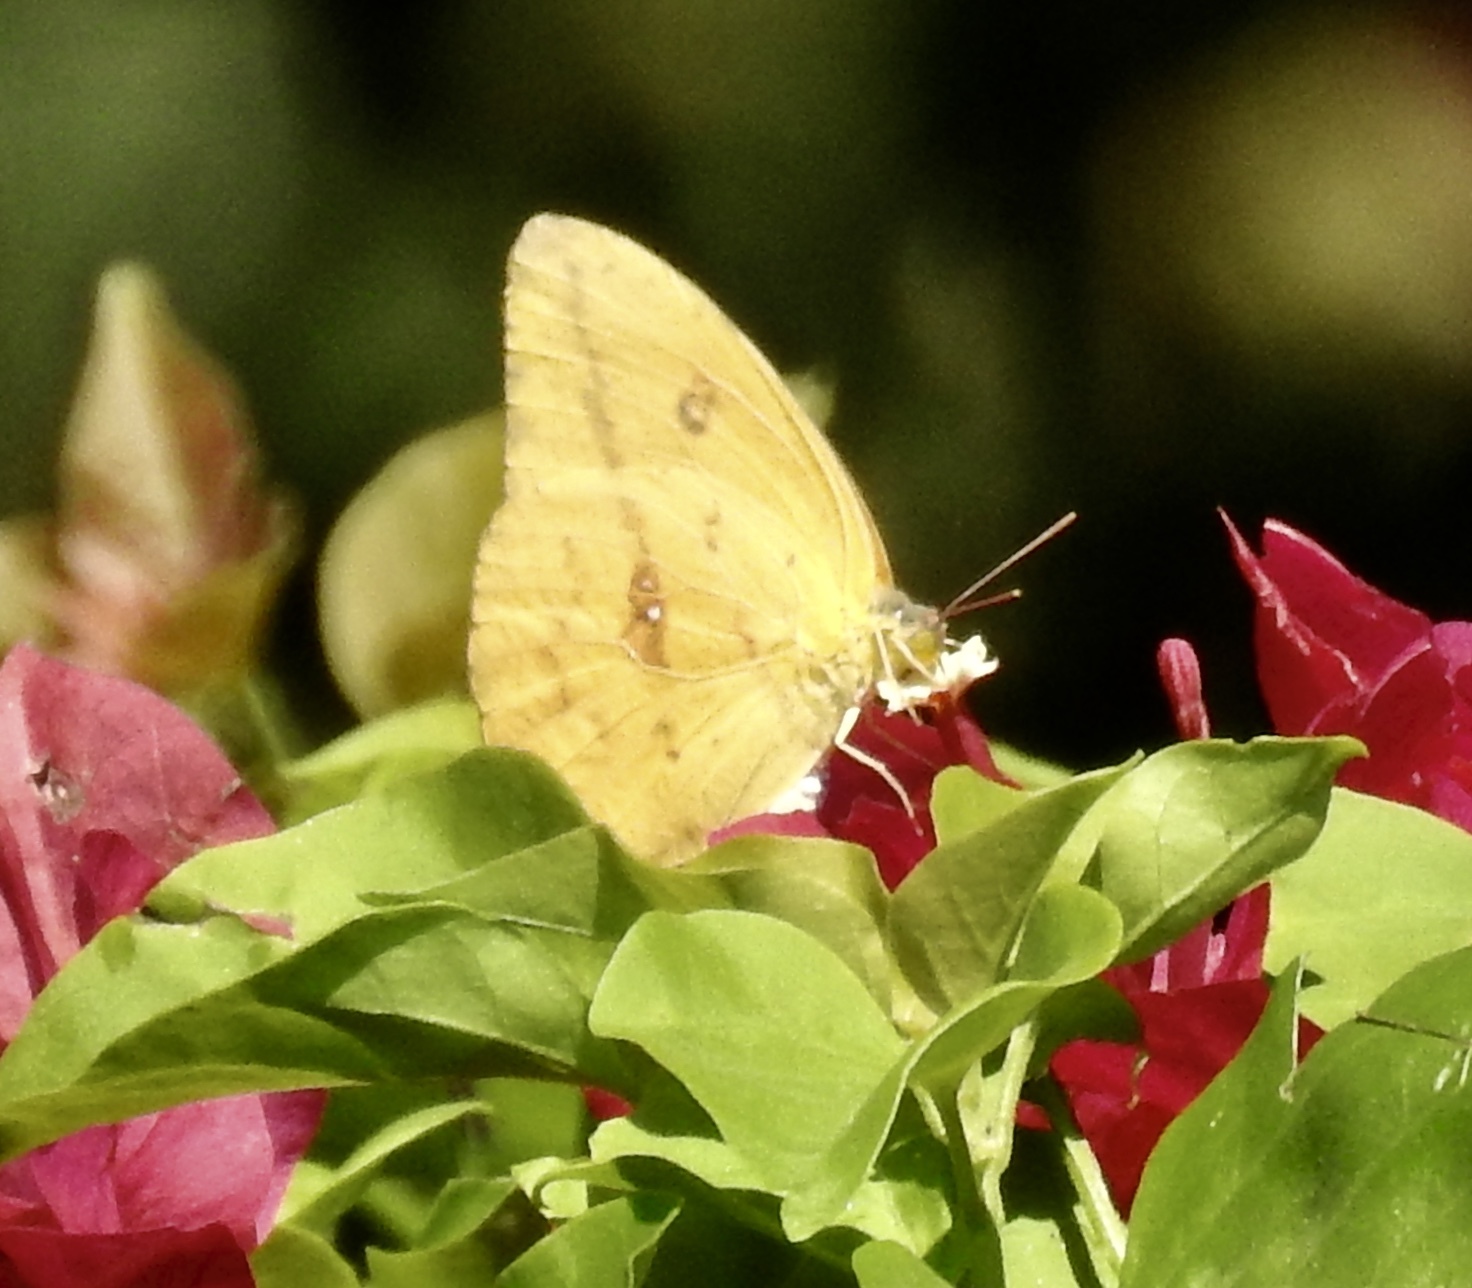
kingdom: Animalia
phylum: Arthropoda
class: Insecta
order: Lepidoptera
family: Pieridae
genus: Phoebis
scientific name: Phoebis agarithe
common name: Large orange sulphur
